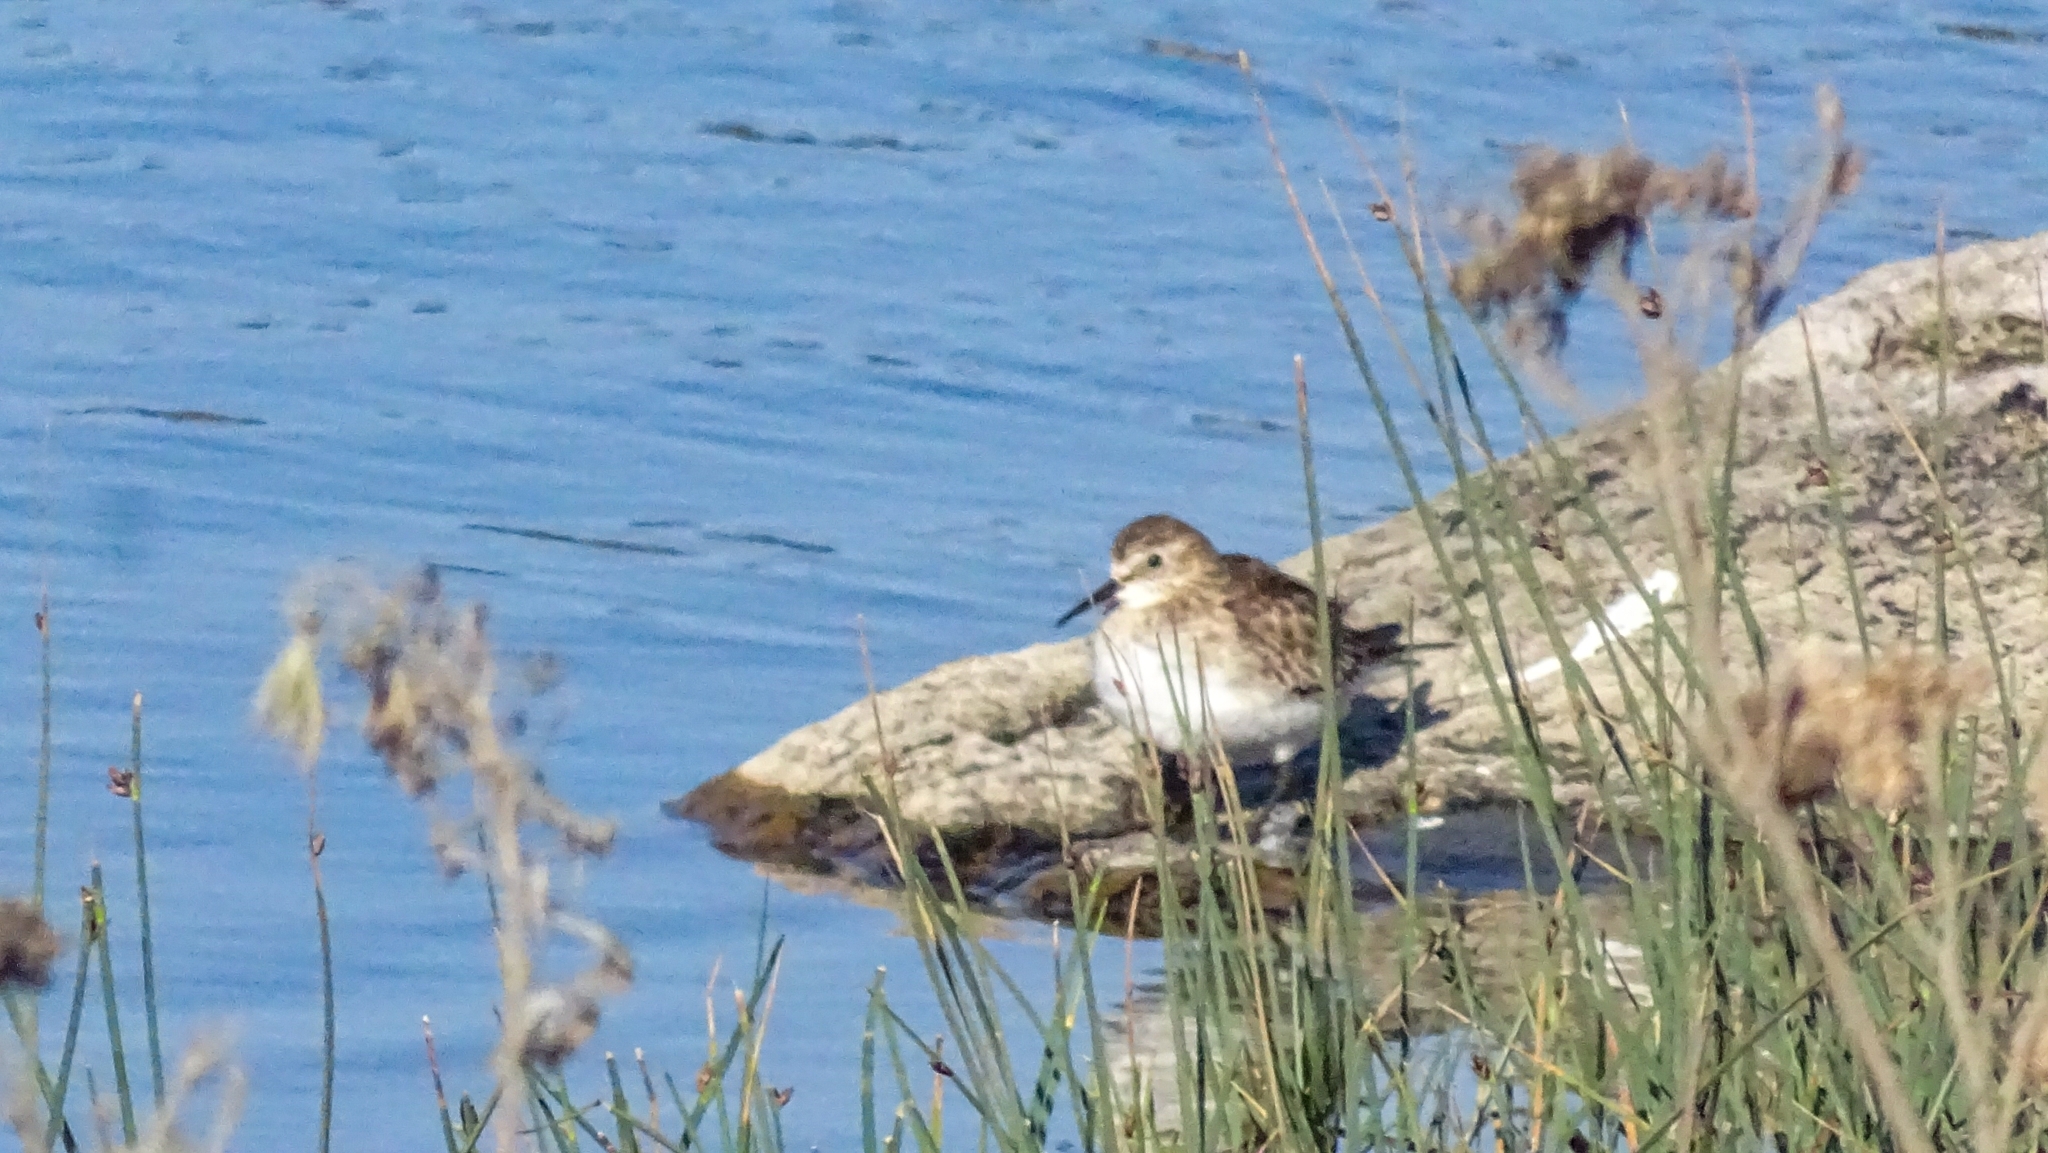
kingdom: Animalia
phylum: Chordata
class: Aves
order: Charadriiformes
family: Scolopacidae
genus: Calidris
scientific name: Calidris bairdii
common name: Baird's sandpiper
